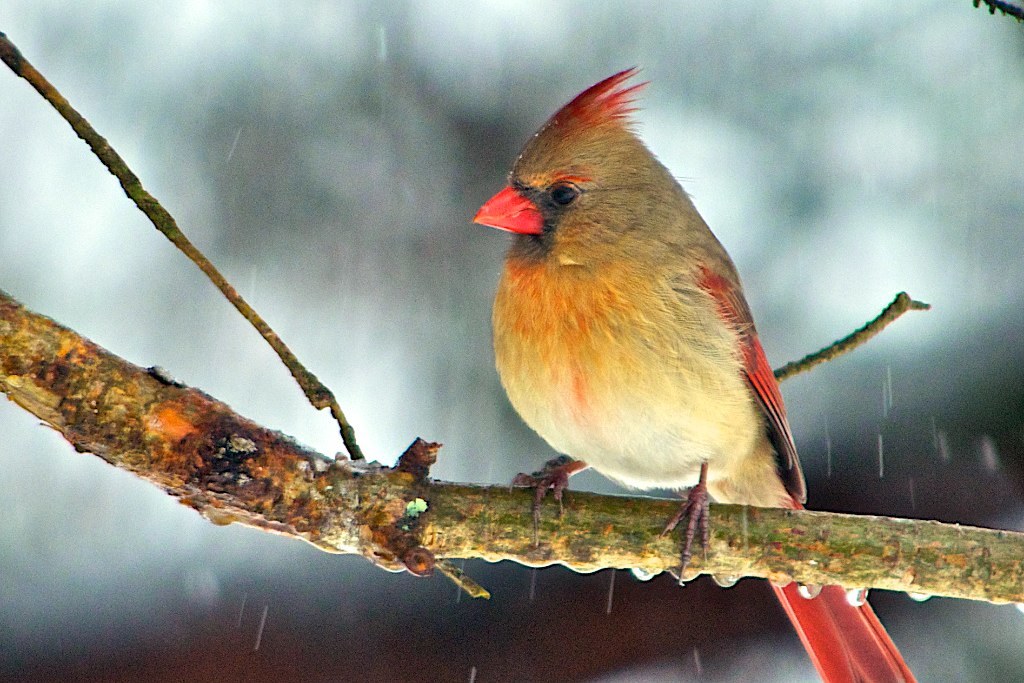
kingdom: Animalia
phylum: Chordata
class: Aves
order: Passeriformes
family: Cardinalidae
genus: Cardinalis
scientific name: Cardinalis cardinalis
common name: Northern cardinal
